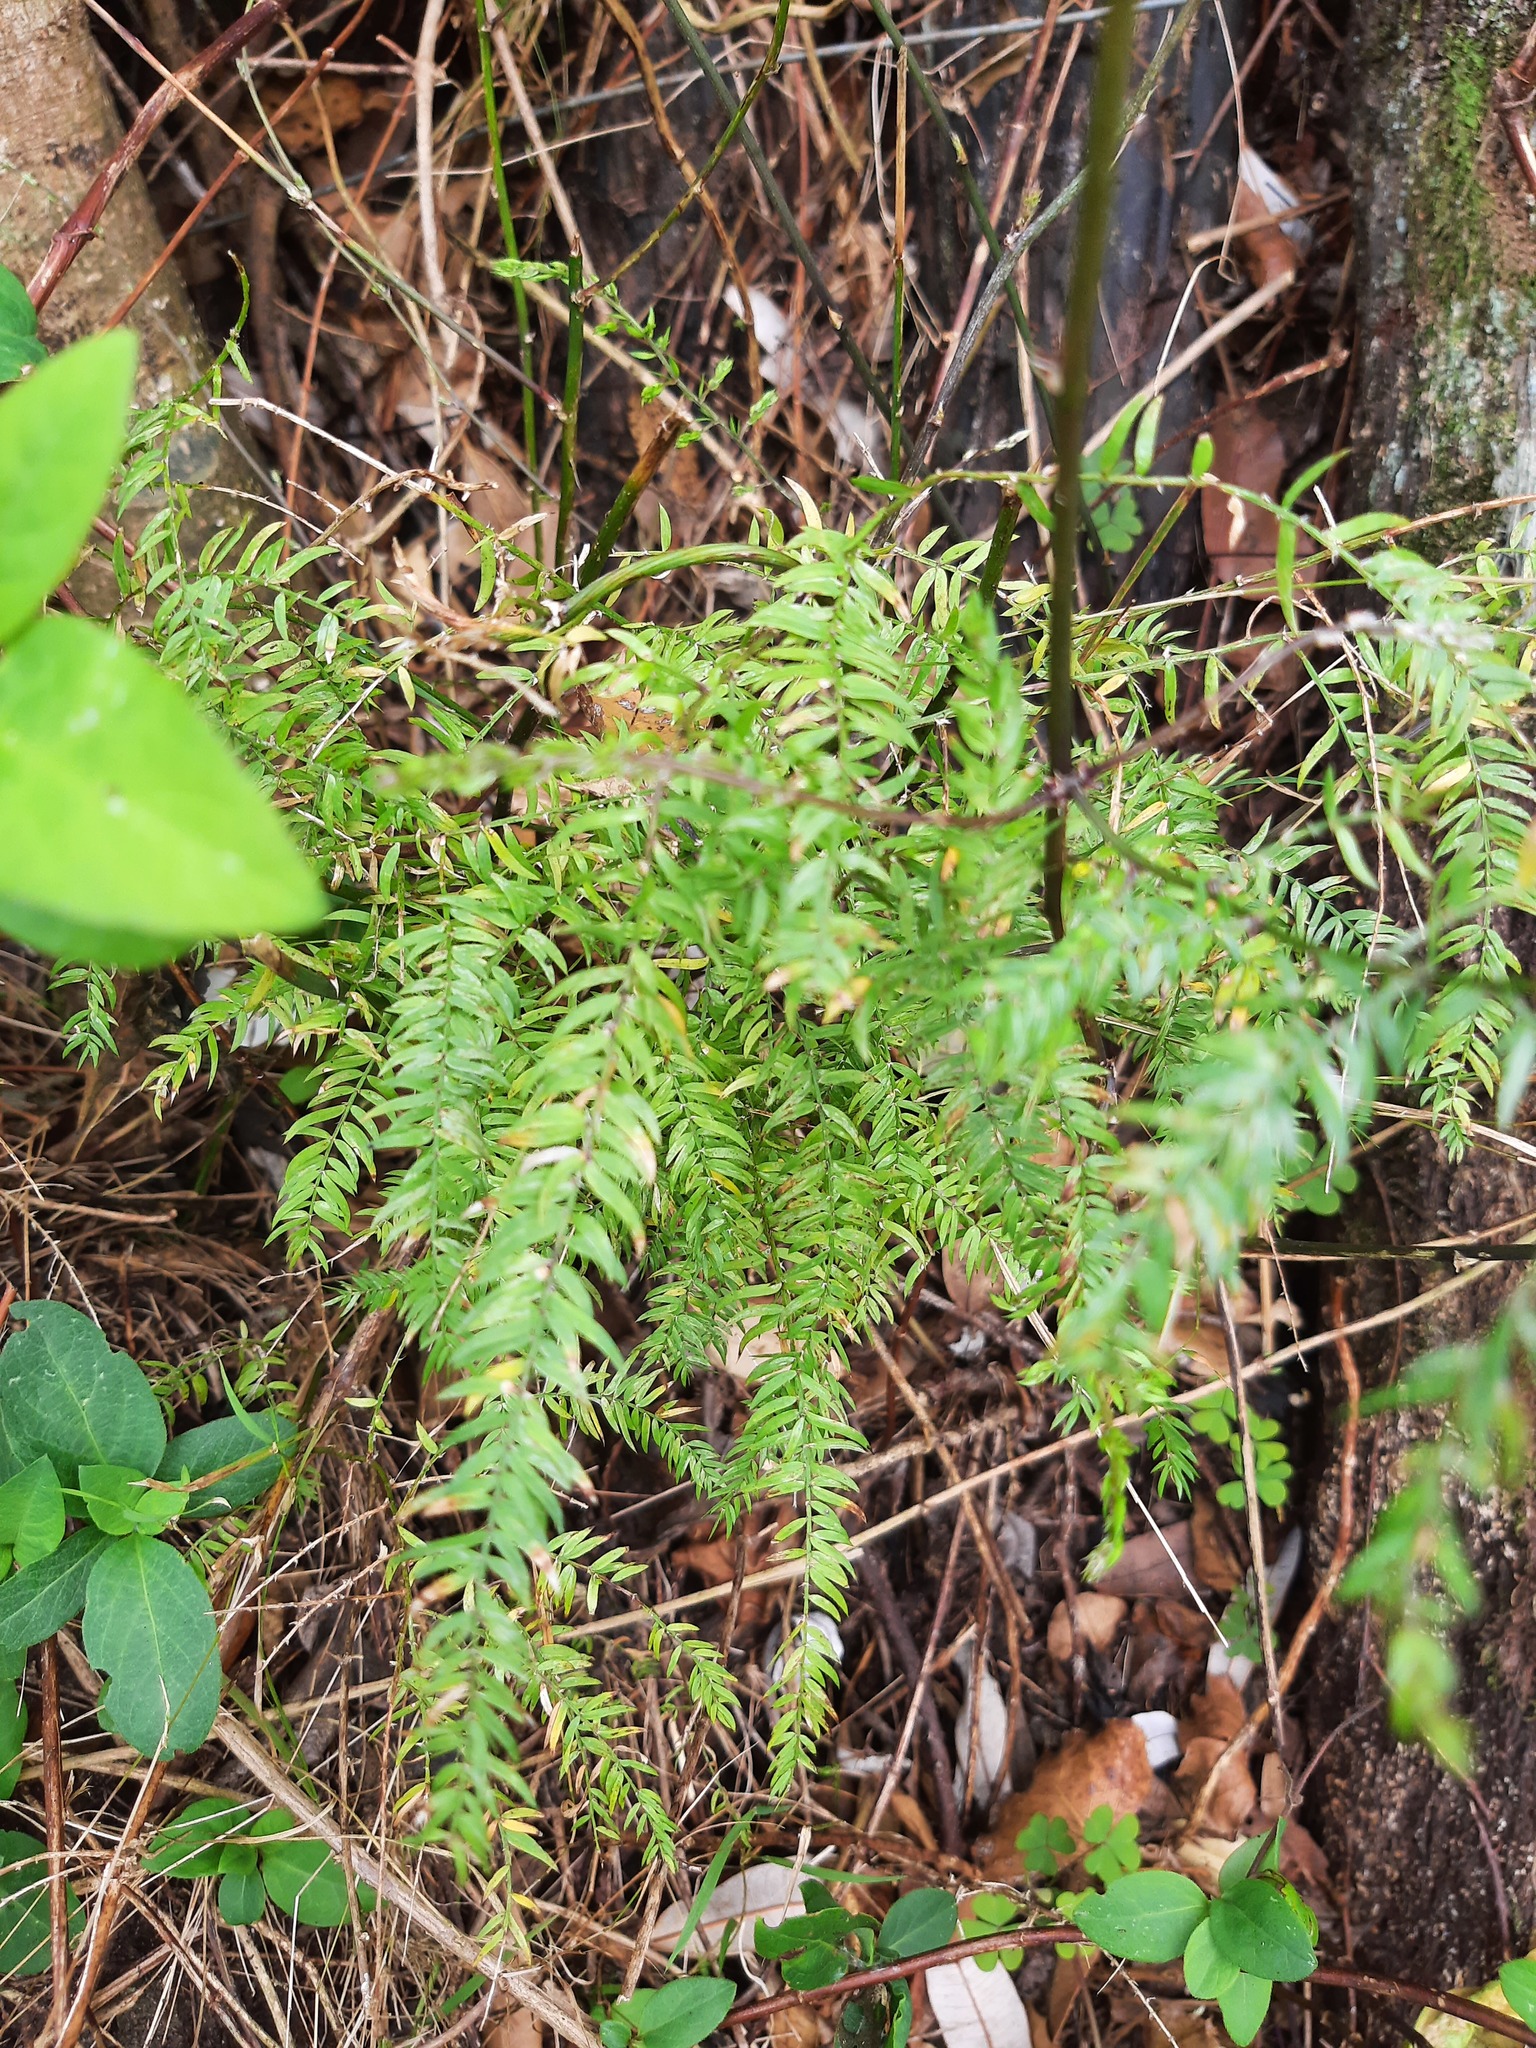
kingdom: Plantae
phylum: Tracheophyta
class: Liliopsida
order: Asparagales
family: Asparagaceae
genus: Asparagus
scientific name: Asparagus scandens
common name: Asparagus-fern
